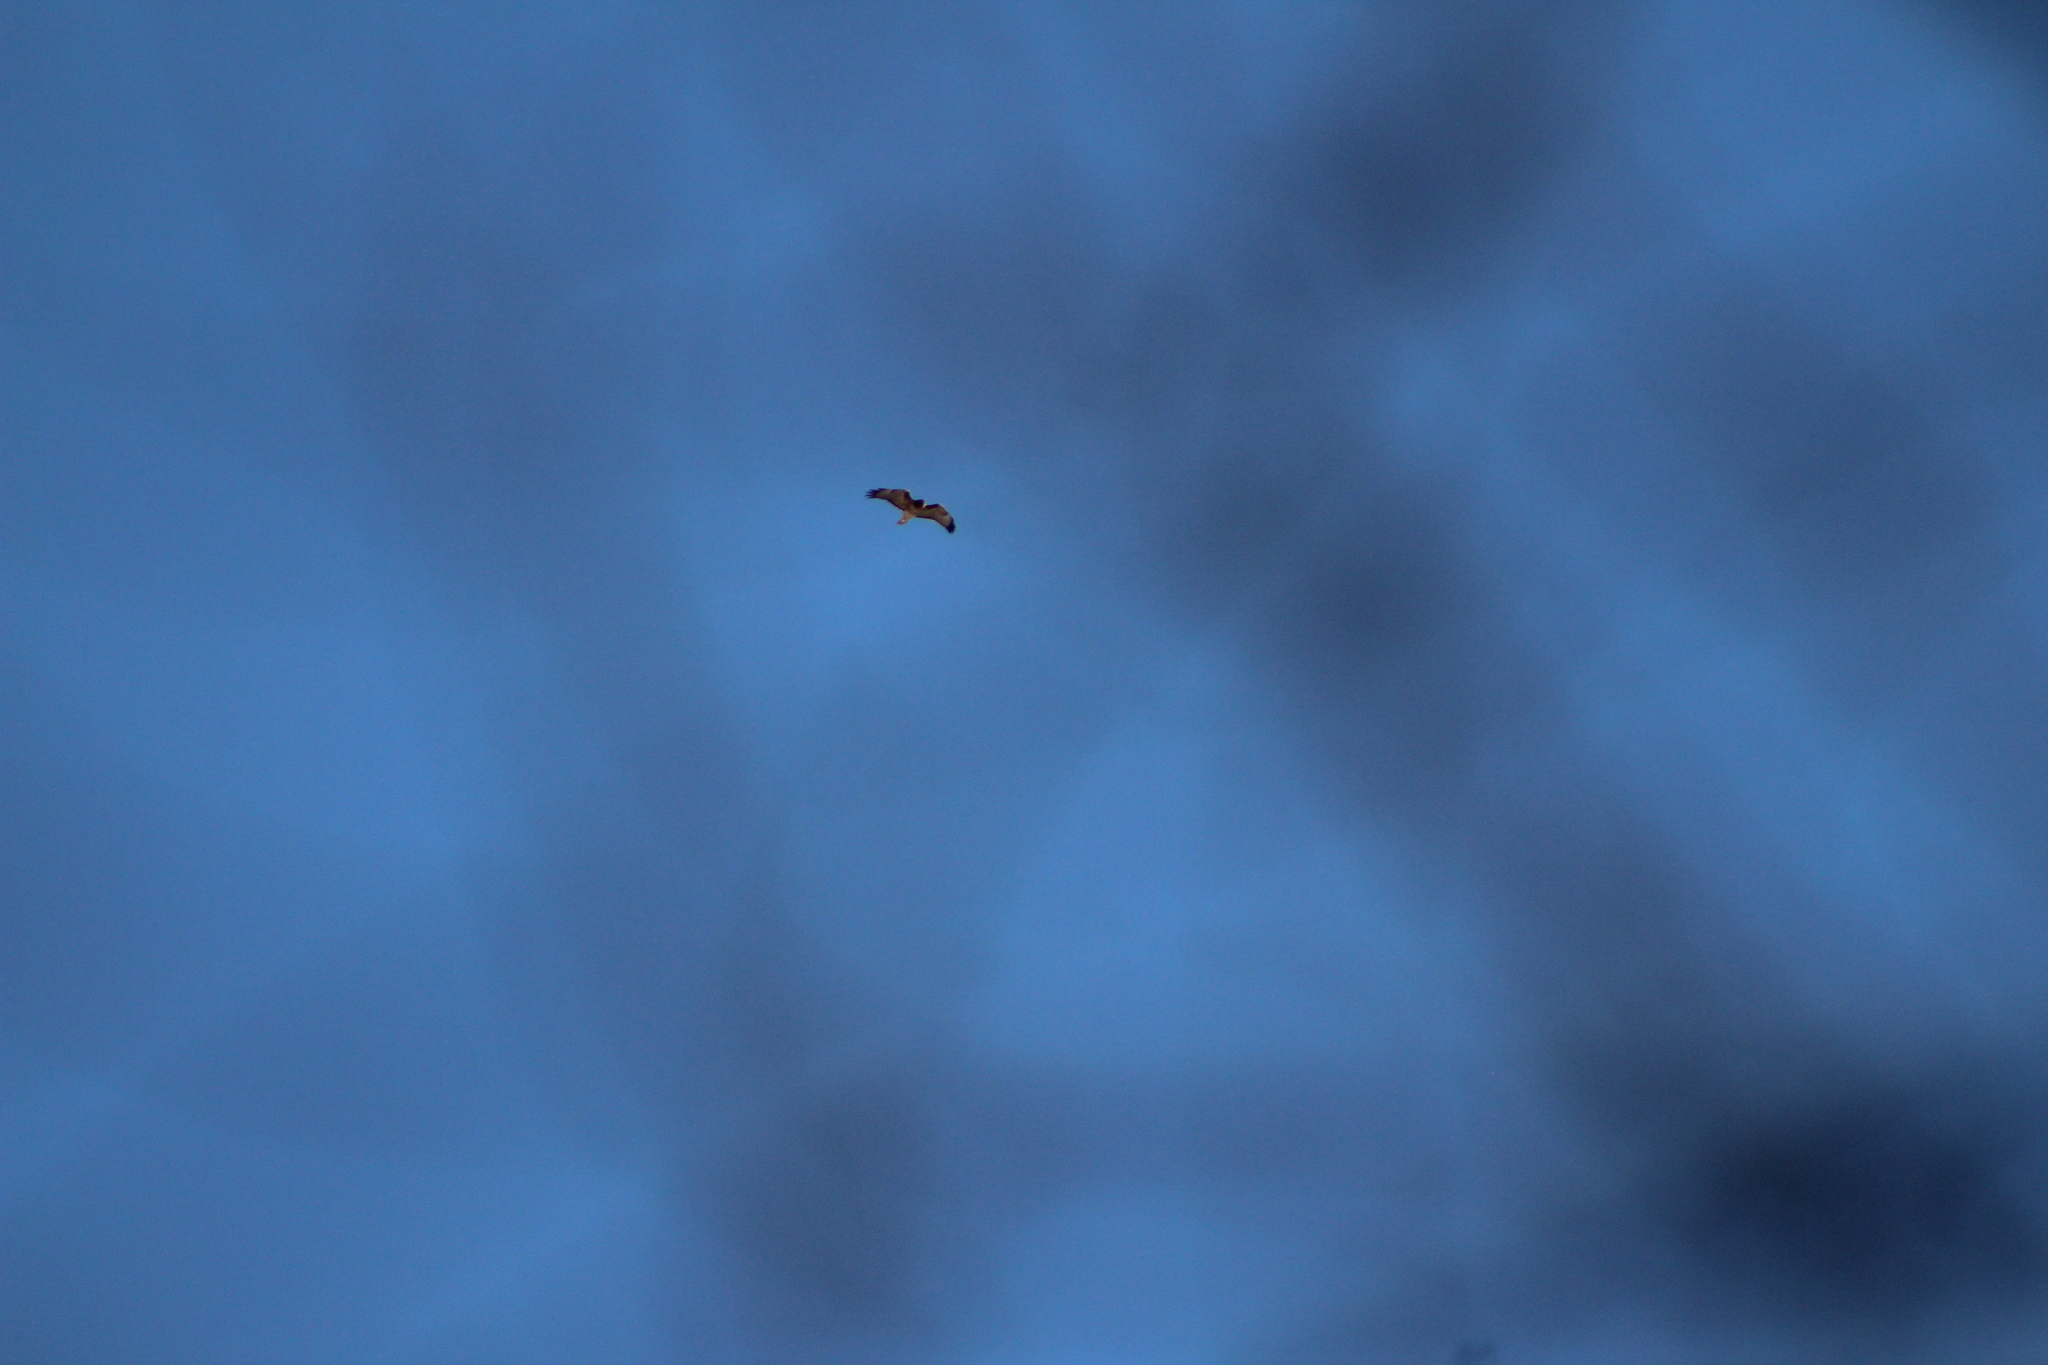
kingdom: Animalia
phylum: Chordata
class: Aves
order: Accipitriformes
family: Accipitridae
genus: Buteo
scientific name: Buteo jamaicensis
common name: Red-tailed hawk
